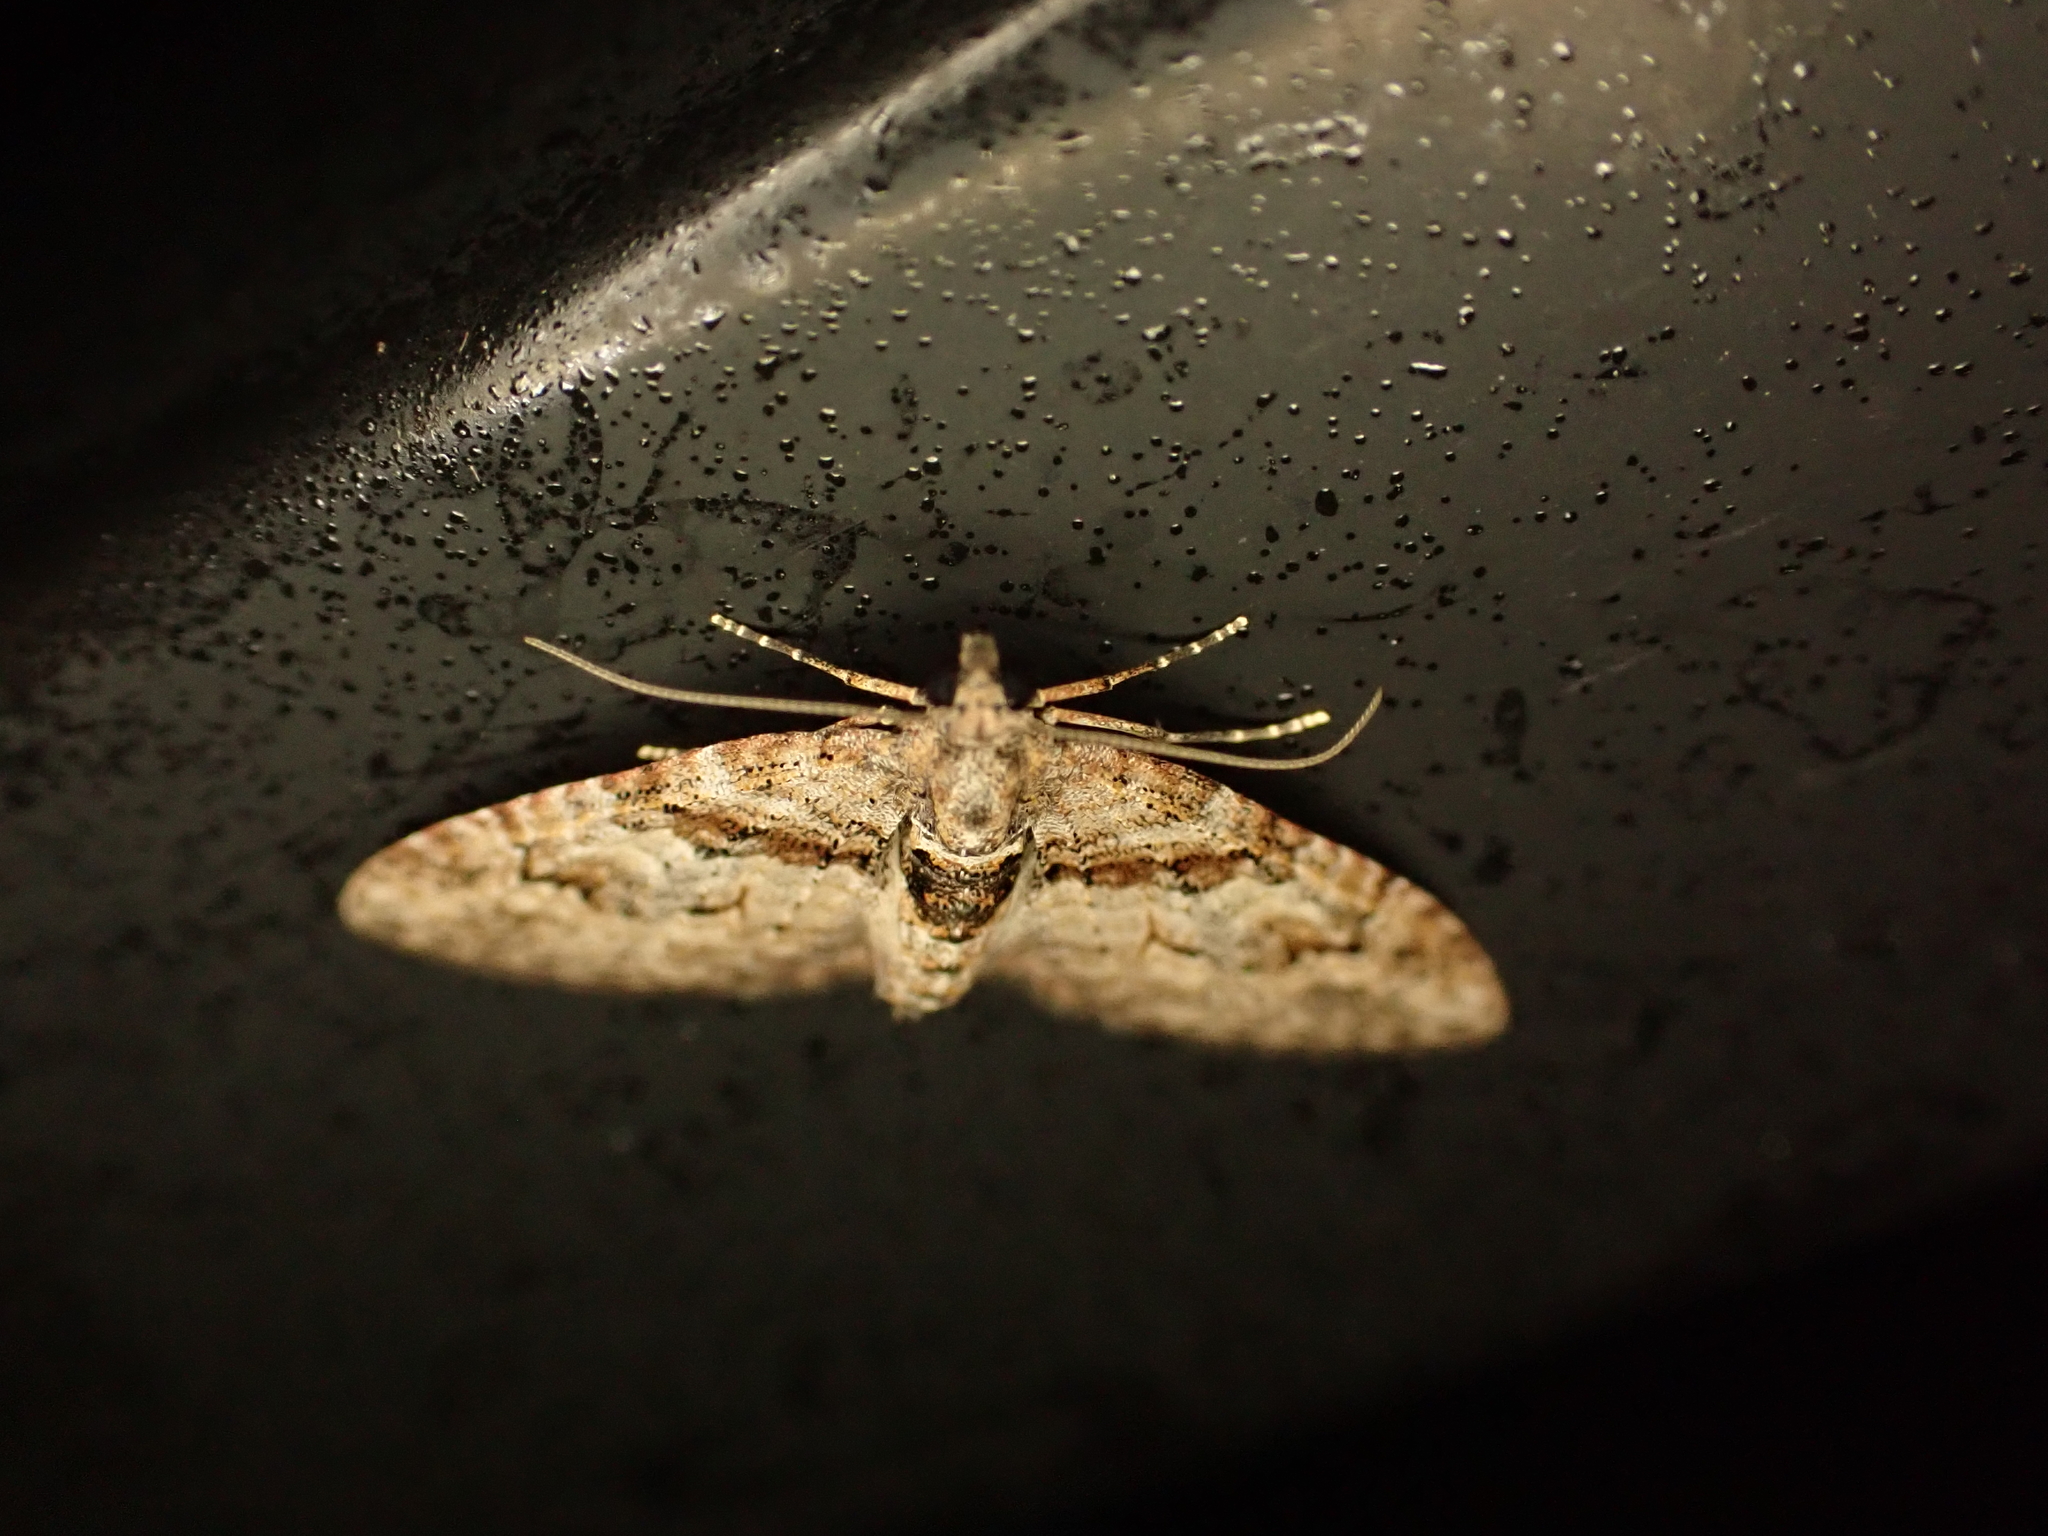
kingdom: Animalia
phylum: Arthropoda
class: Insecta
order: Lepidoptera
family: Geometridae
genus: Phrissogonus
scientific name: Phrissogonus laticostata
